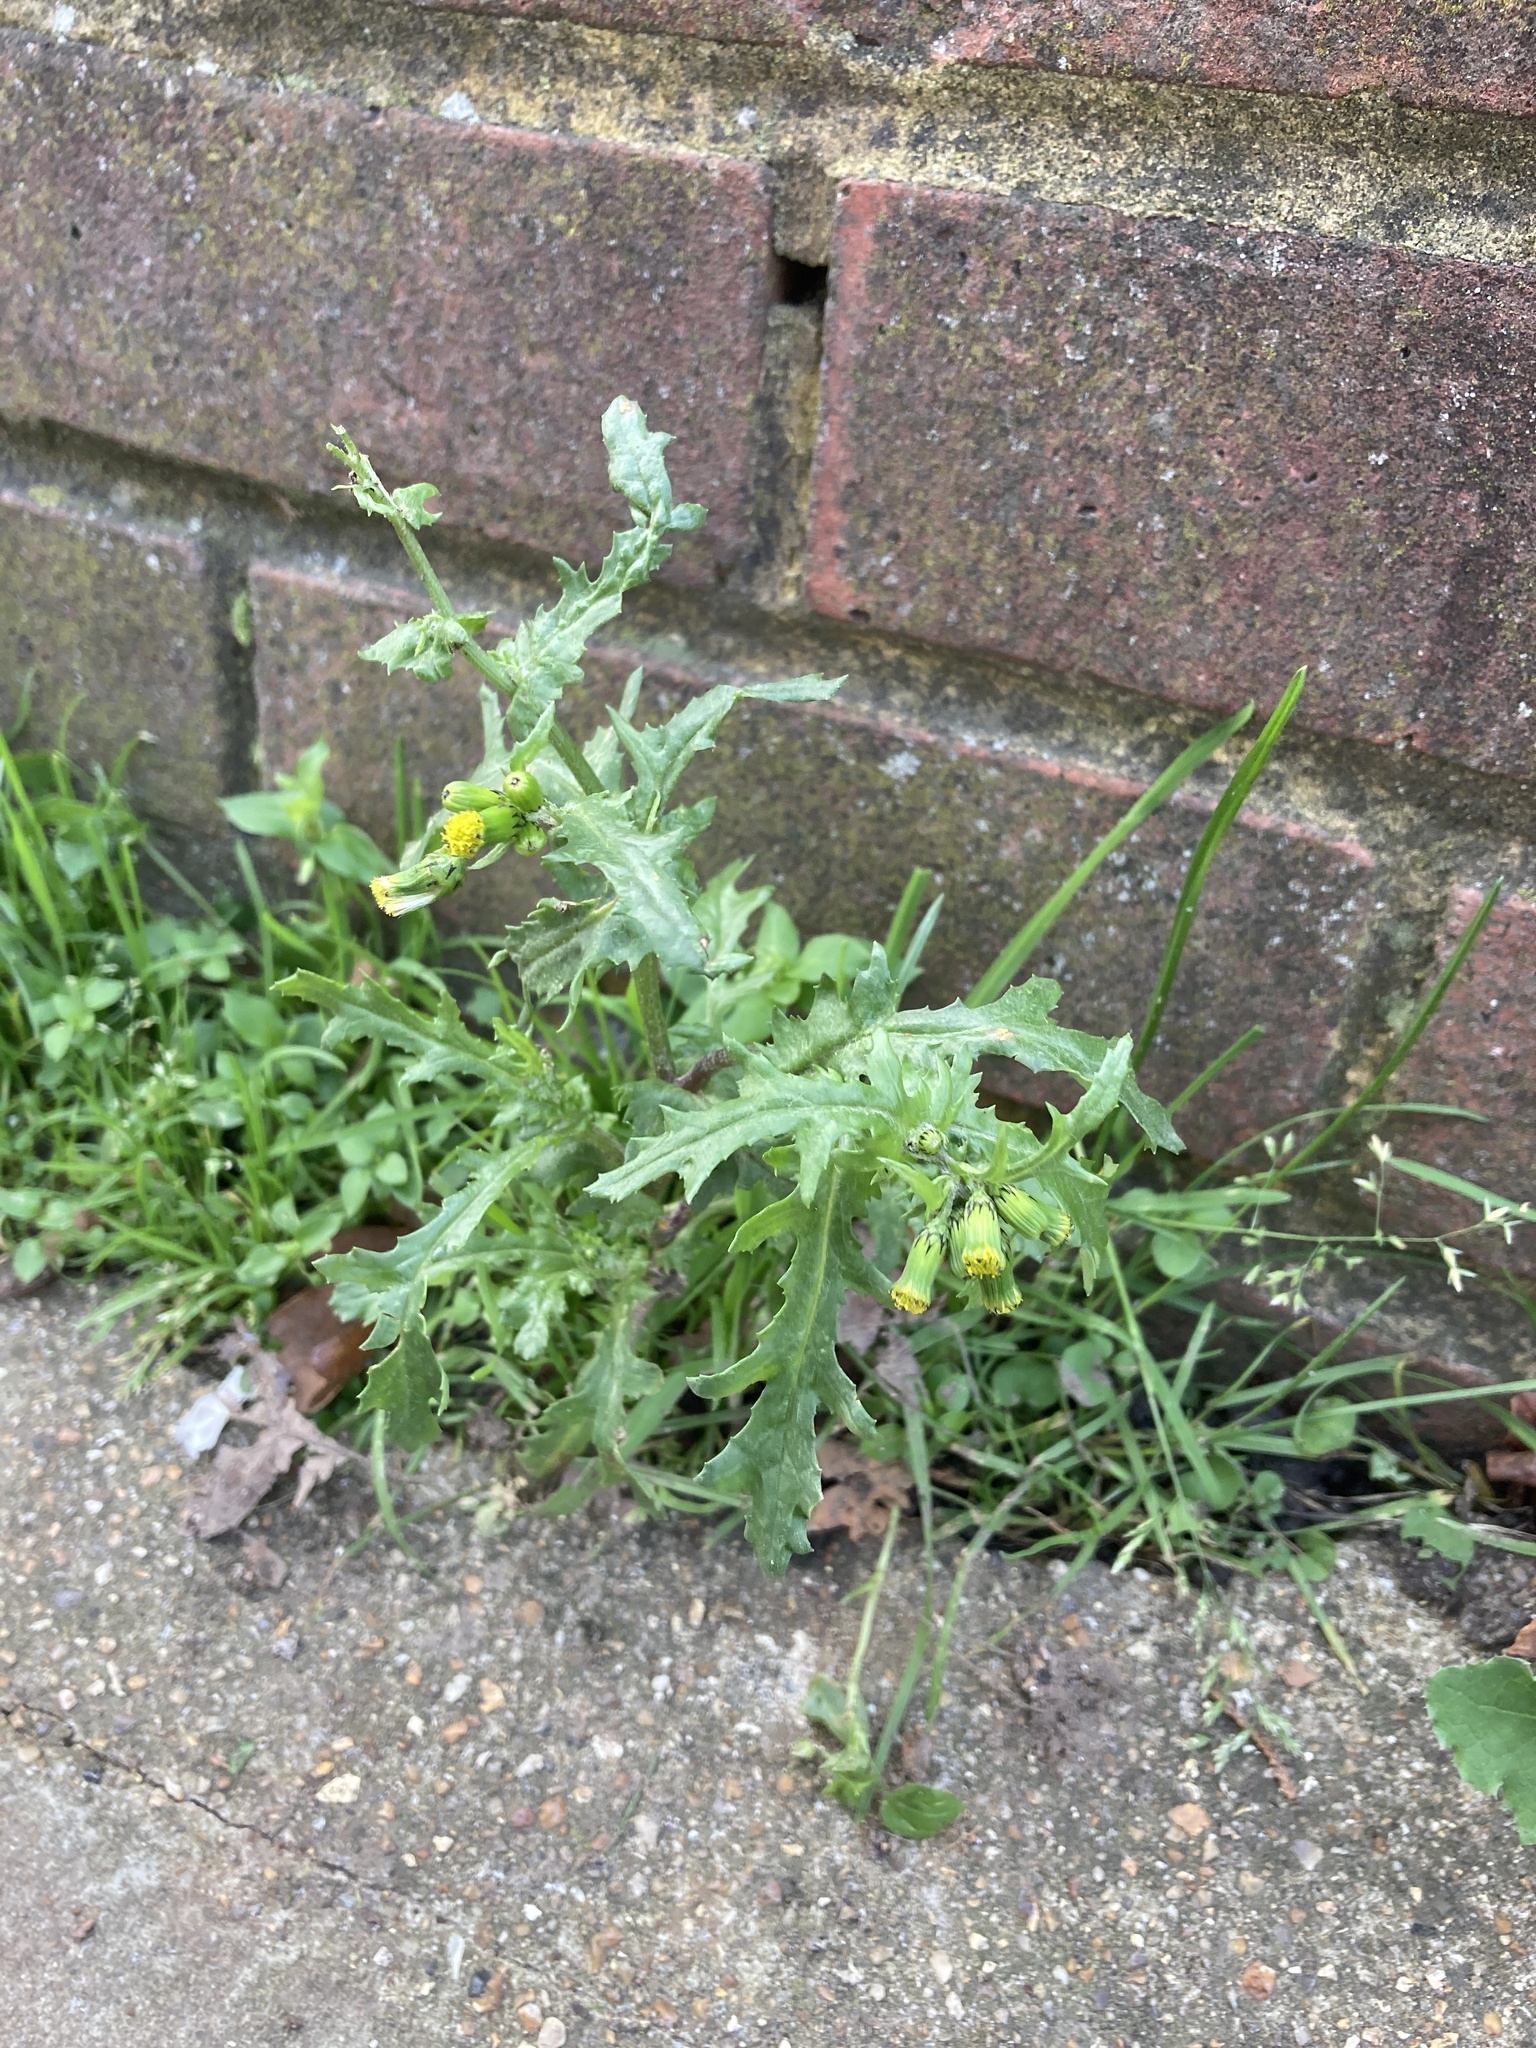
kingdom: Plantae
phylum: Tracheophyta
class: Magnoliopsida
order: Asterales
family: Asteraceae
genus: Senecio
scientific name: Senecio vulgaris
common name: Old-man-in-the-spring
